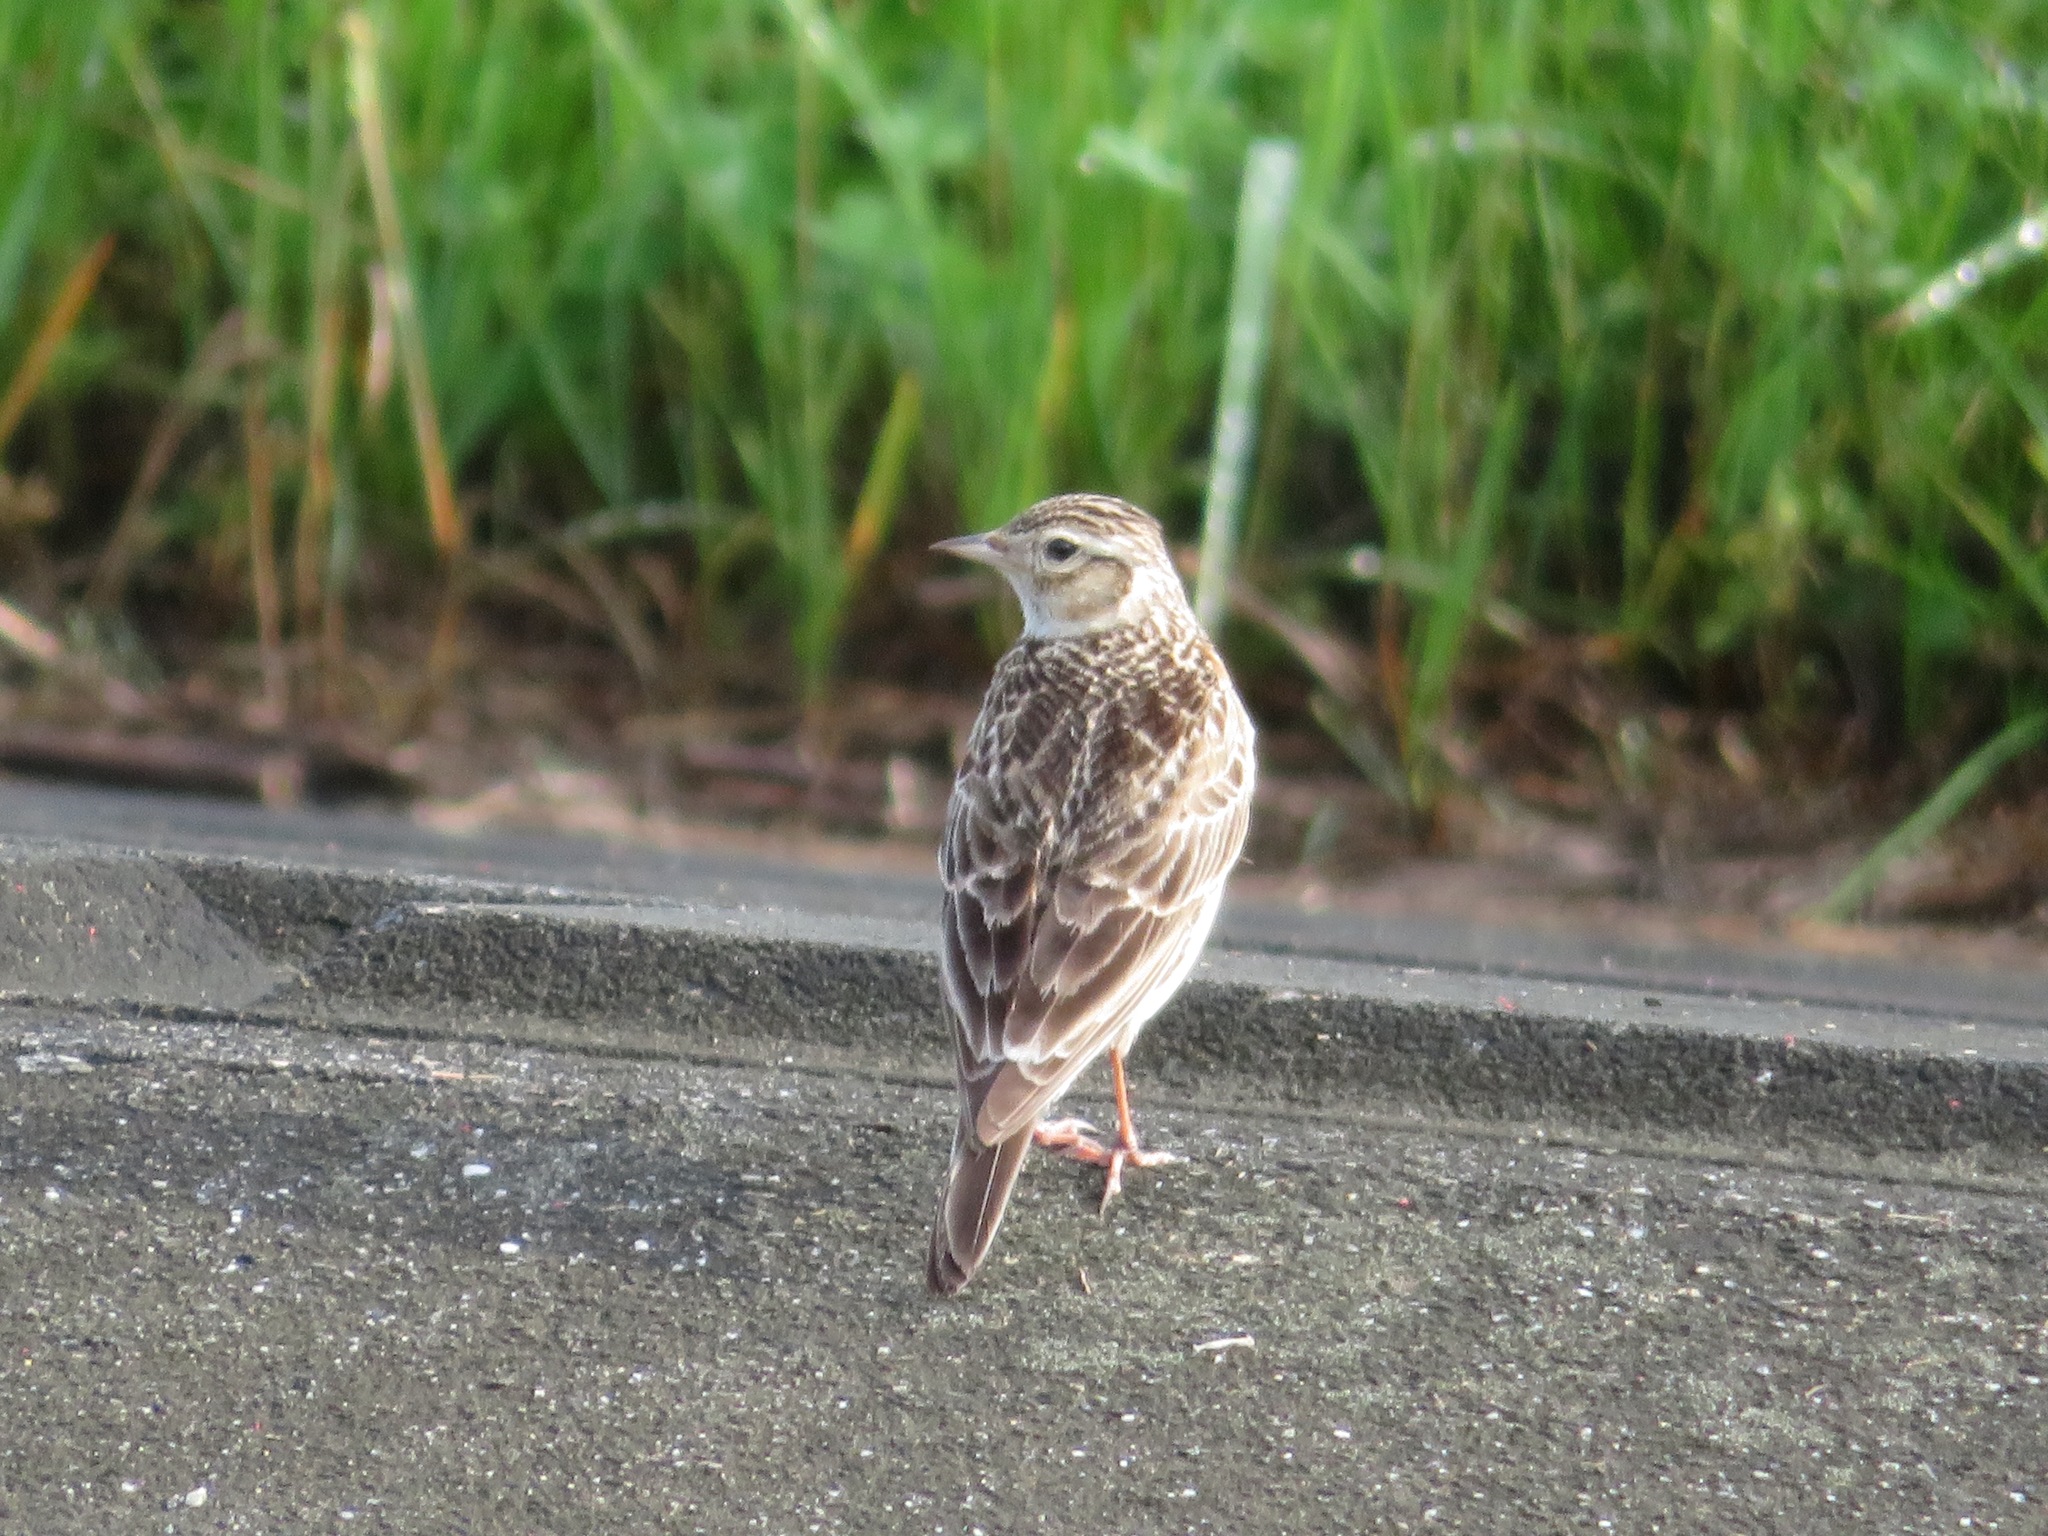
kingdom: Animalia
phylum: Chordata
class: Aves
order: Passeriformes
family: Alaudidae
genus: Alauda
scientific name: Alauda arvensis
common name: Eurasian skylark
